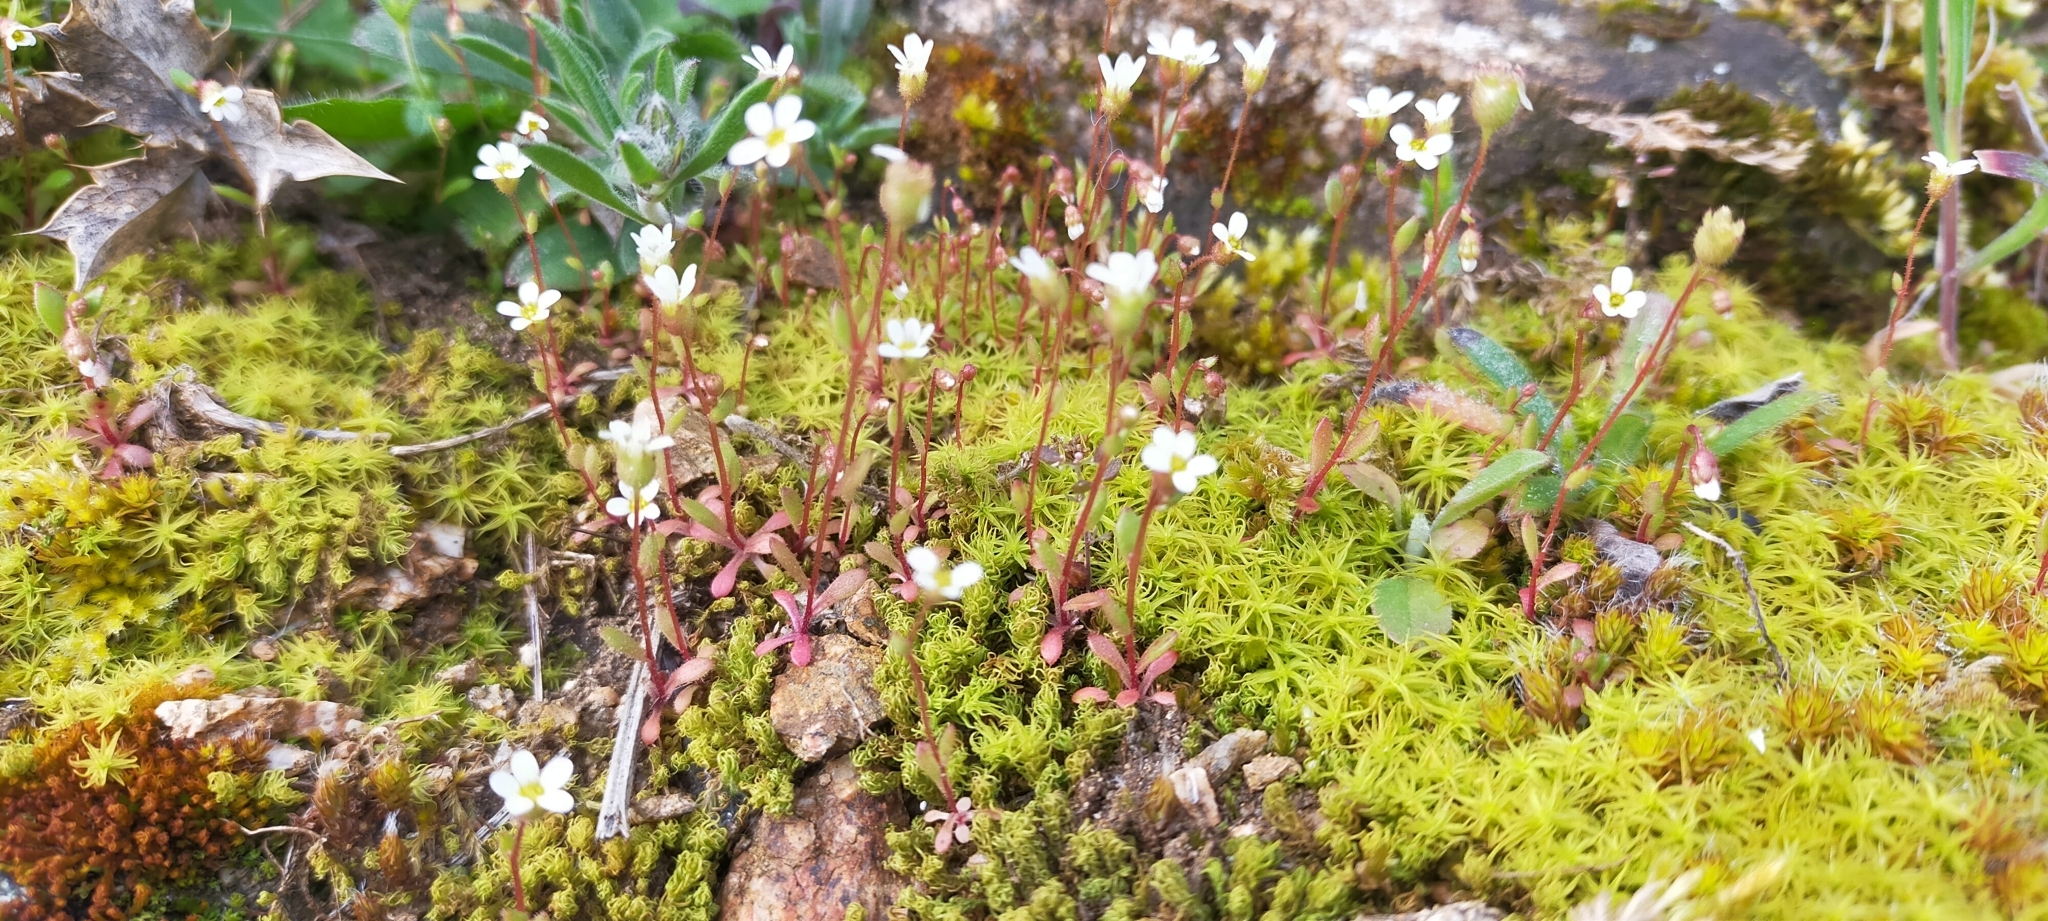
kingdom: Plantae
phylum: Tracheophyta
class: Magnoliopsida
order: Saxifragales
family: Saxifragaceae
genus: Saxifraga
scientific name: Saxifraga tridactylites
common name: Rue-leaved saxifrage
